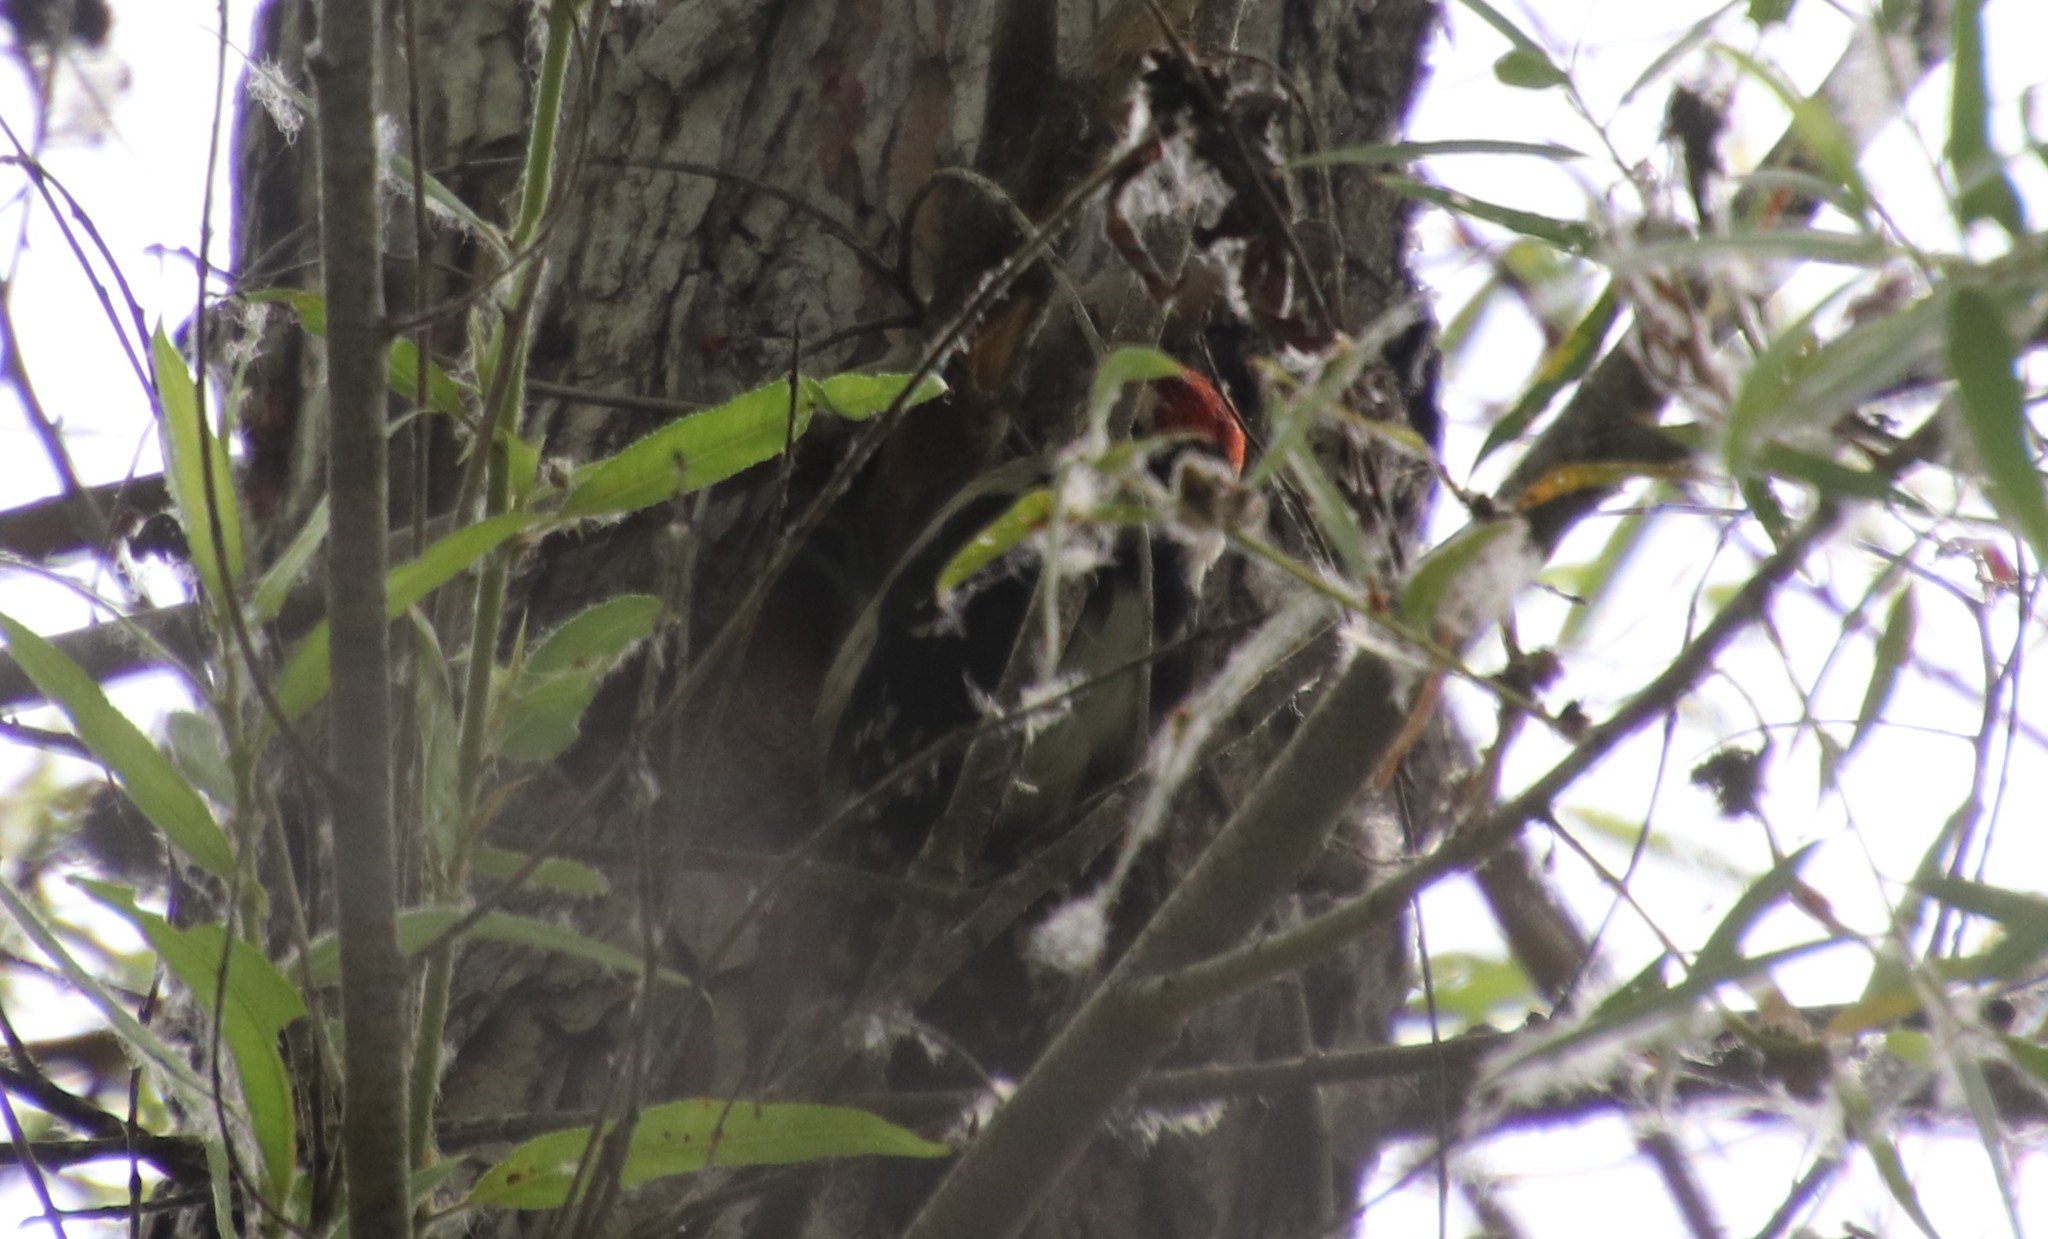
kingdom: Animalia
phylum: Chordata
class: Aves
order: Piciformes
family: Picidae
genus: Dryobates
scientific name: Dryobates pubescens
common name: Downy woodpecker
